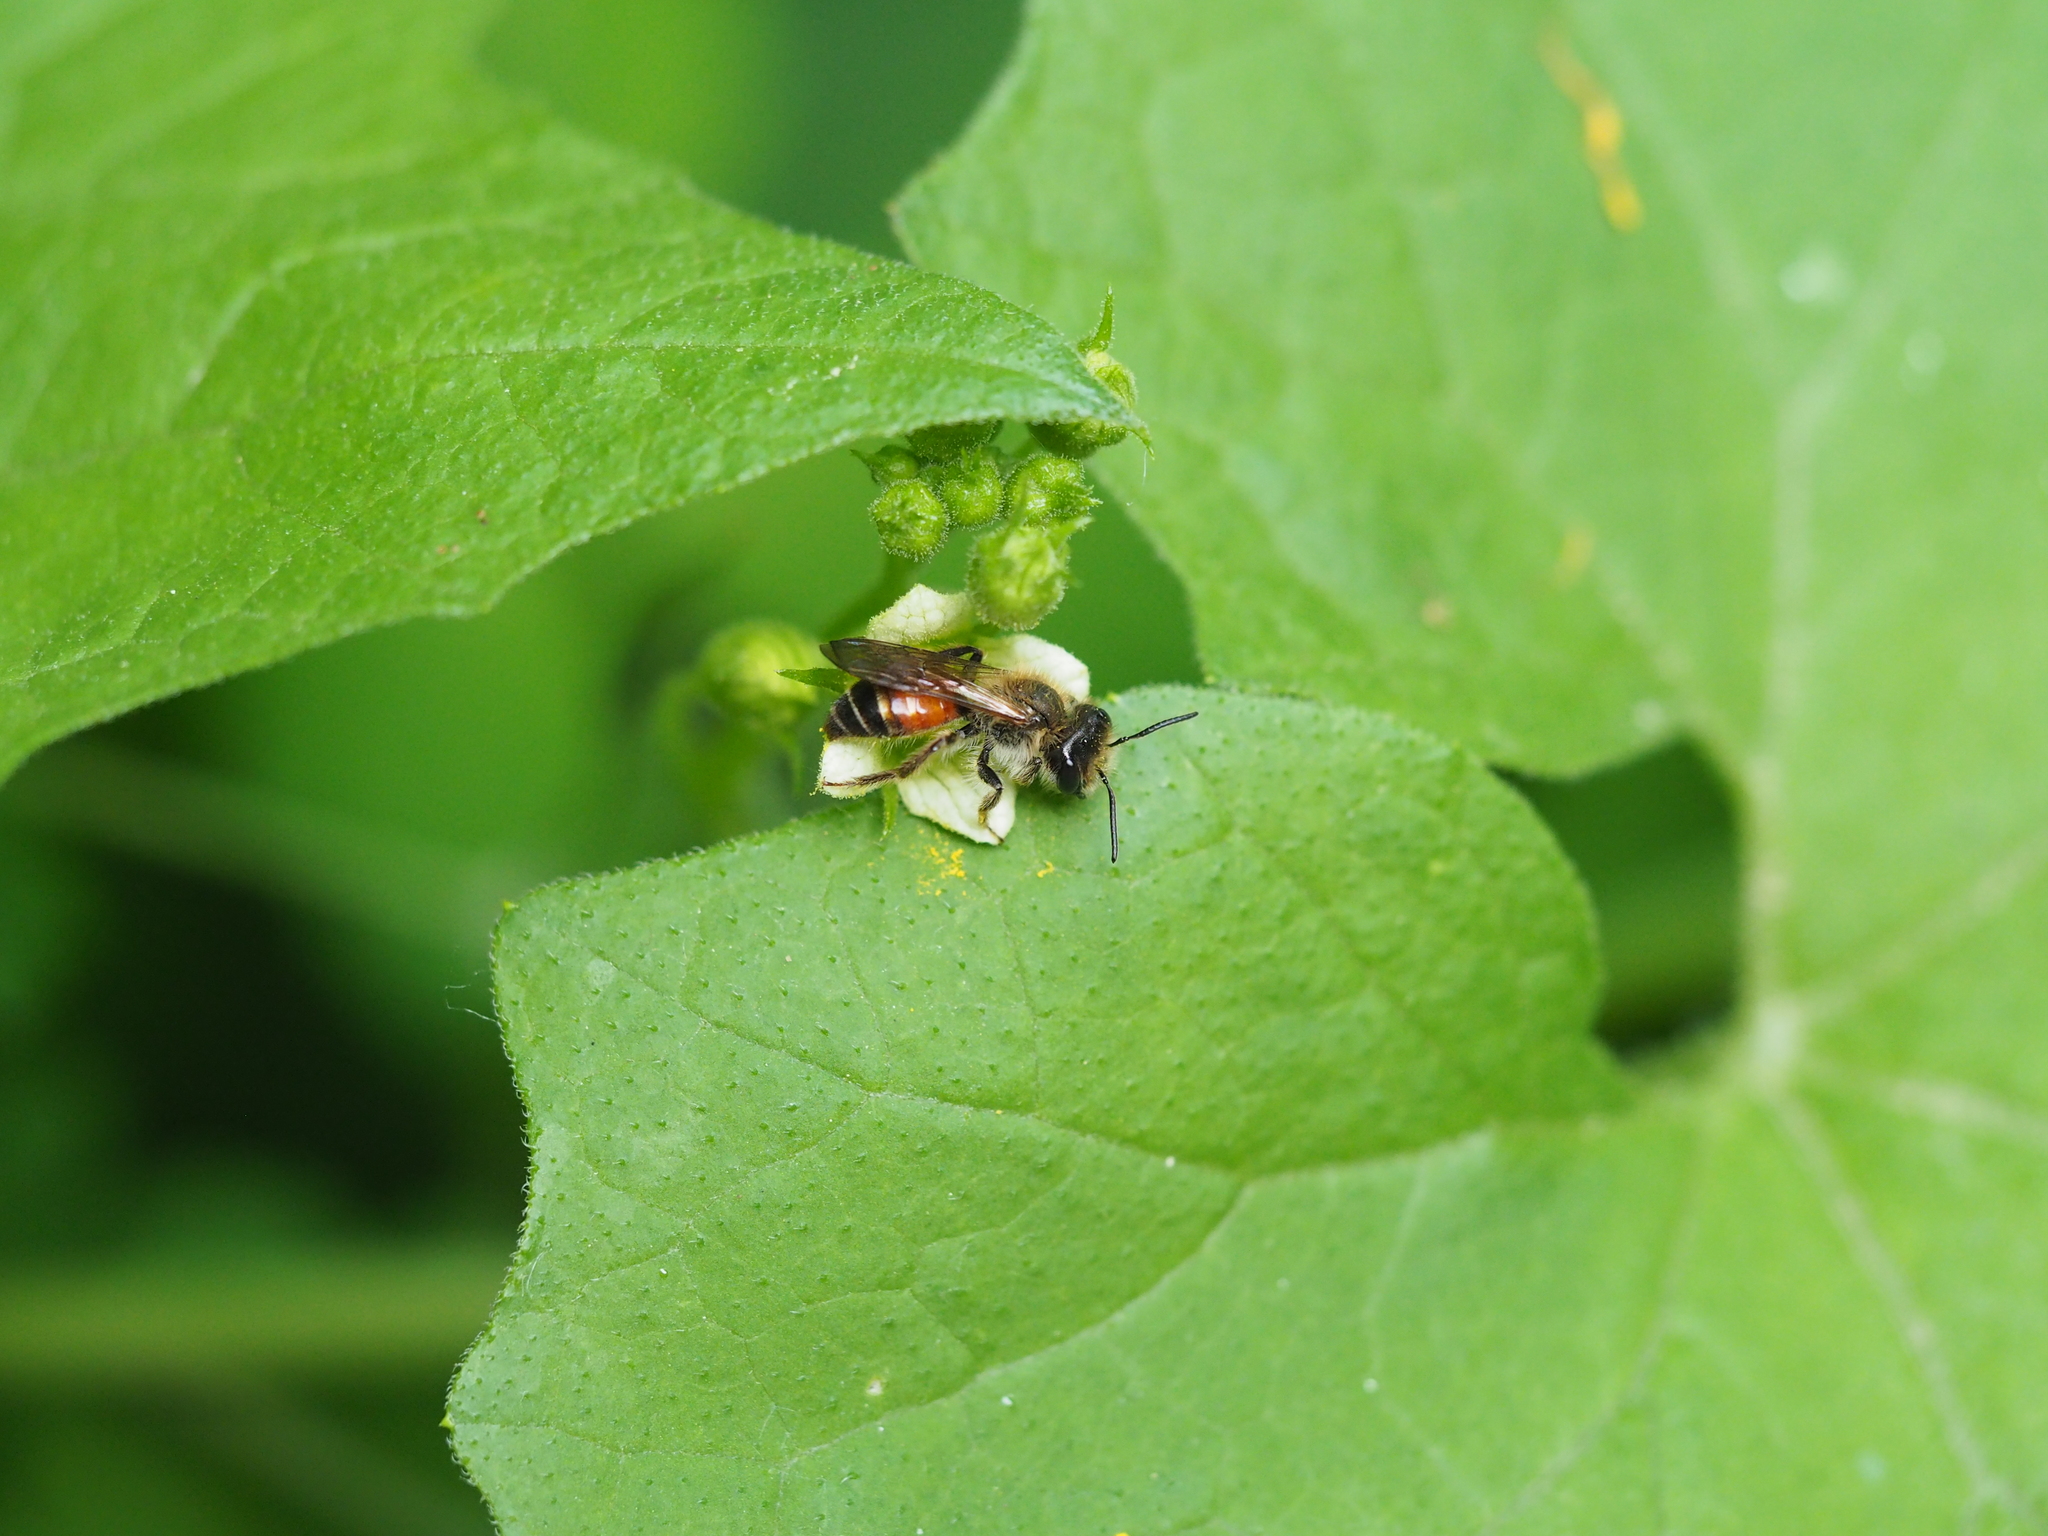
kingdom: Animalia
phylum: Arthropoda
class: Insecta
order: Hymenoptera
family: Andrenidae
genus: Andrena
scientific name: Andrena florea
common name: Bryony mining bee
